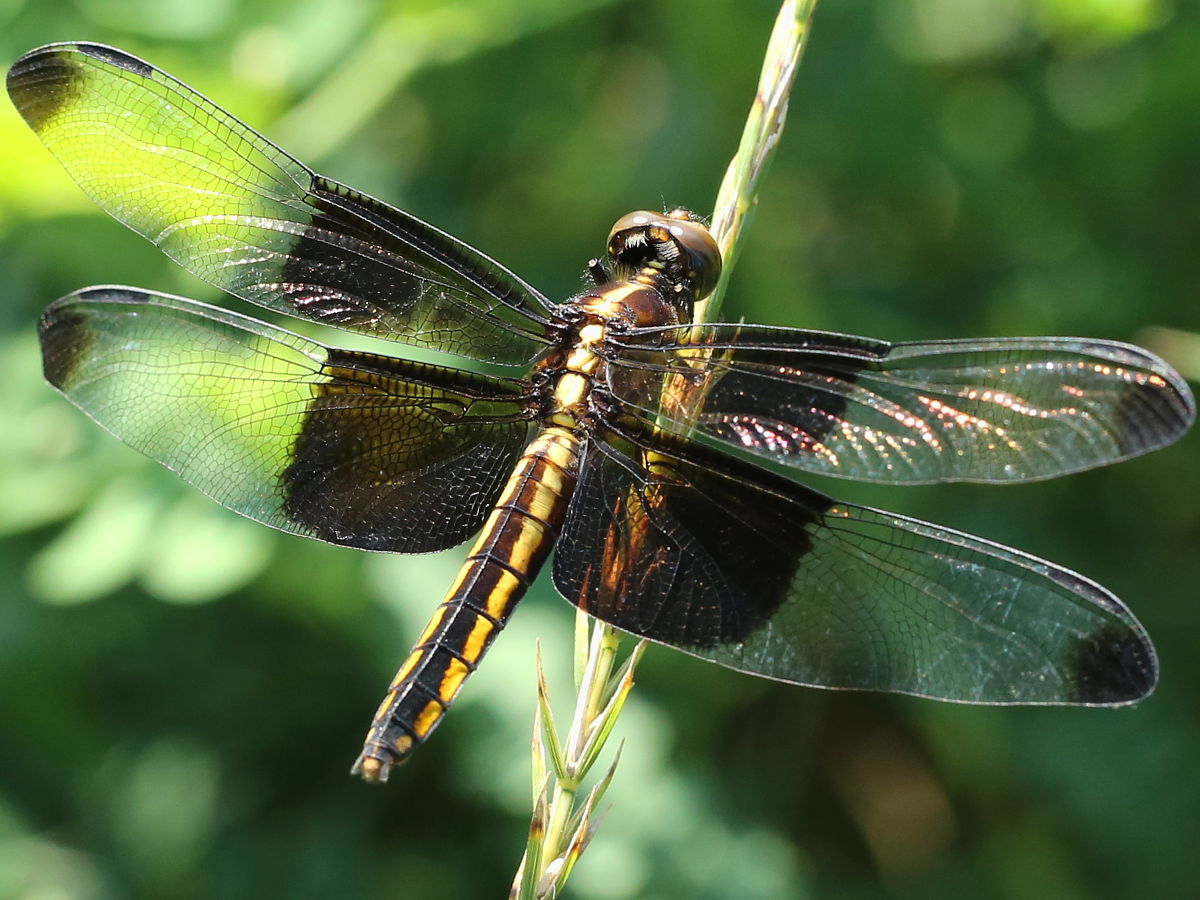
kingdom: Animalia
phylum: Arthropoda
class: Insecta
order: Odonata
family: Libellulidae
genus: Libellula
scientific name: Libellula luctuosa
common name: Widow skimmer
